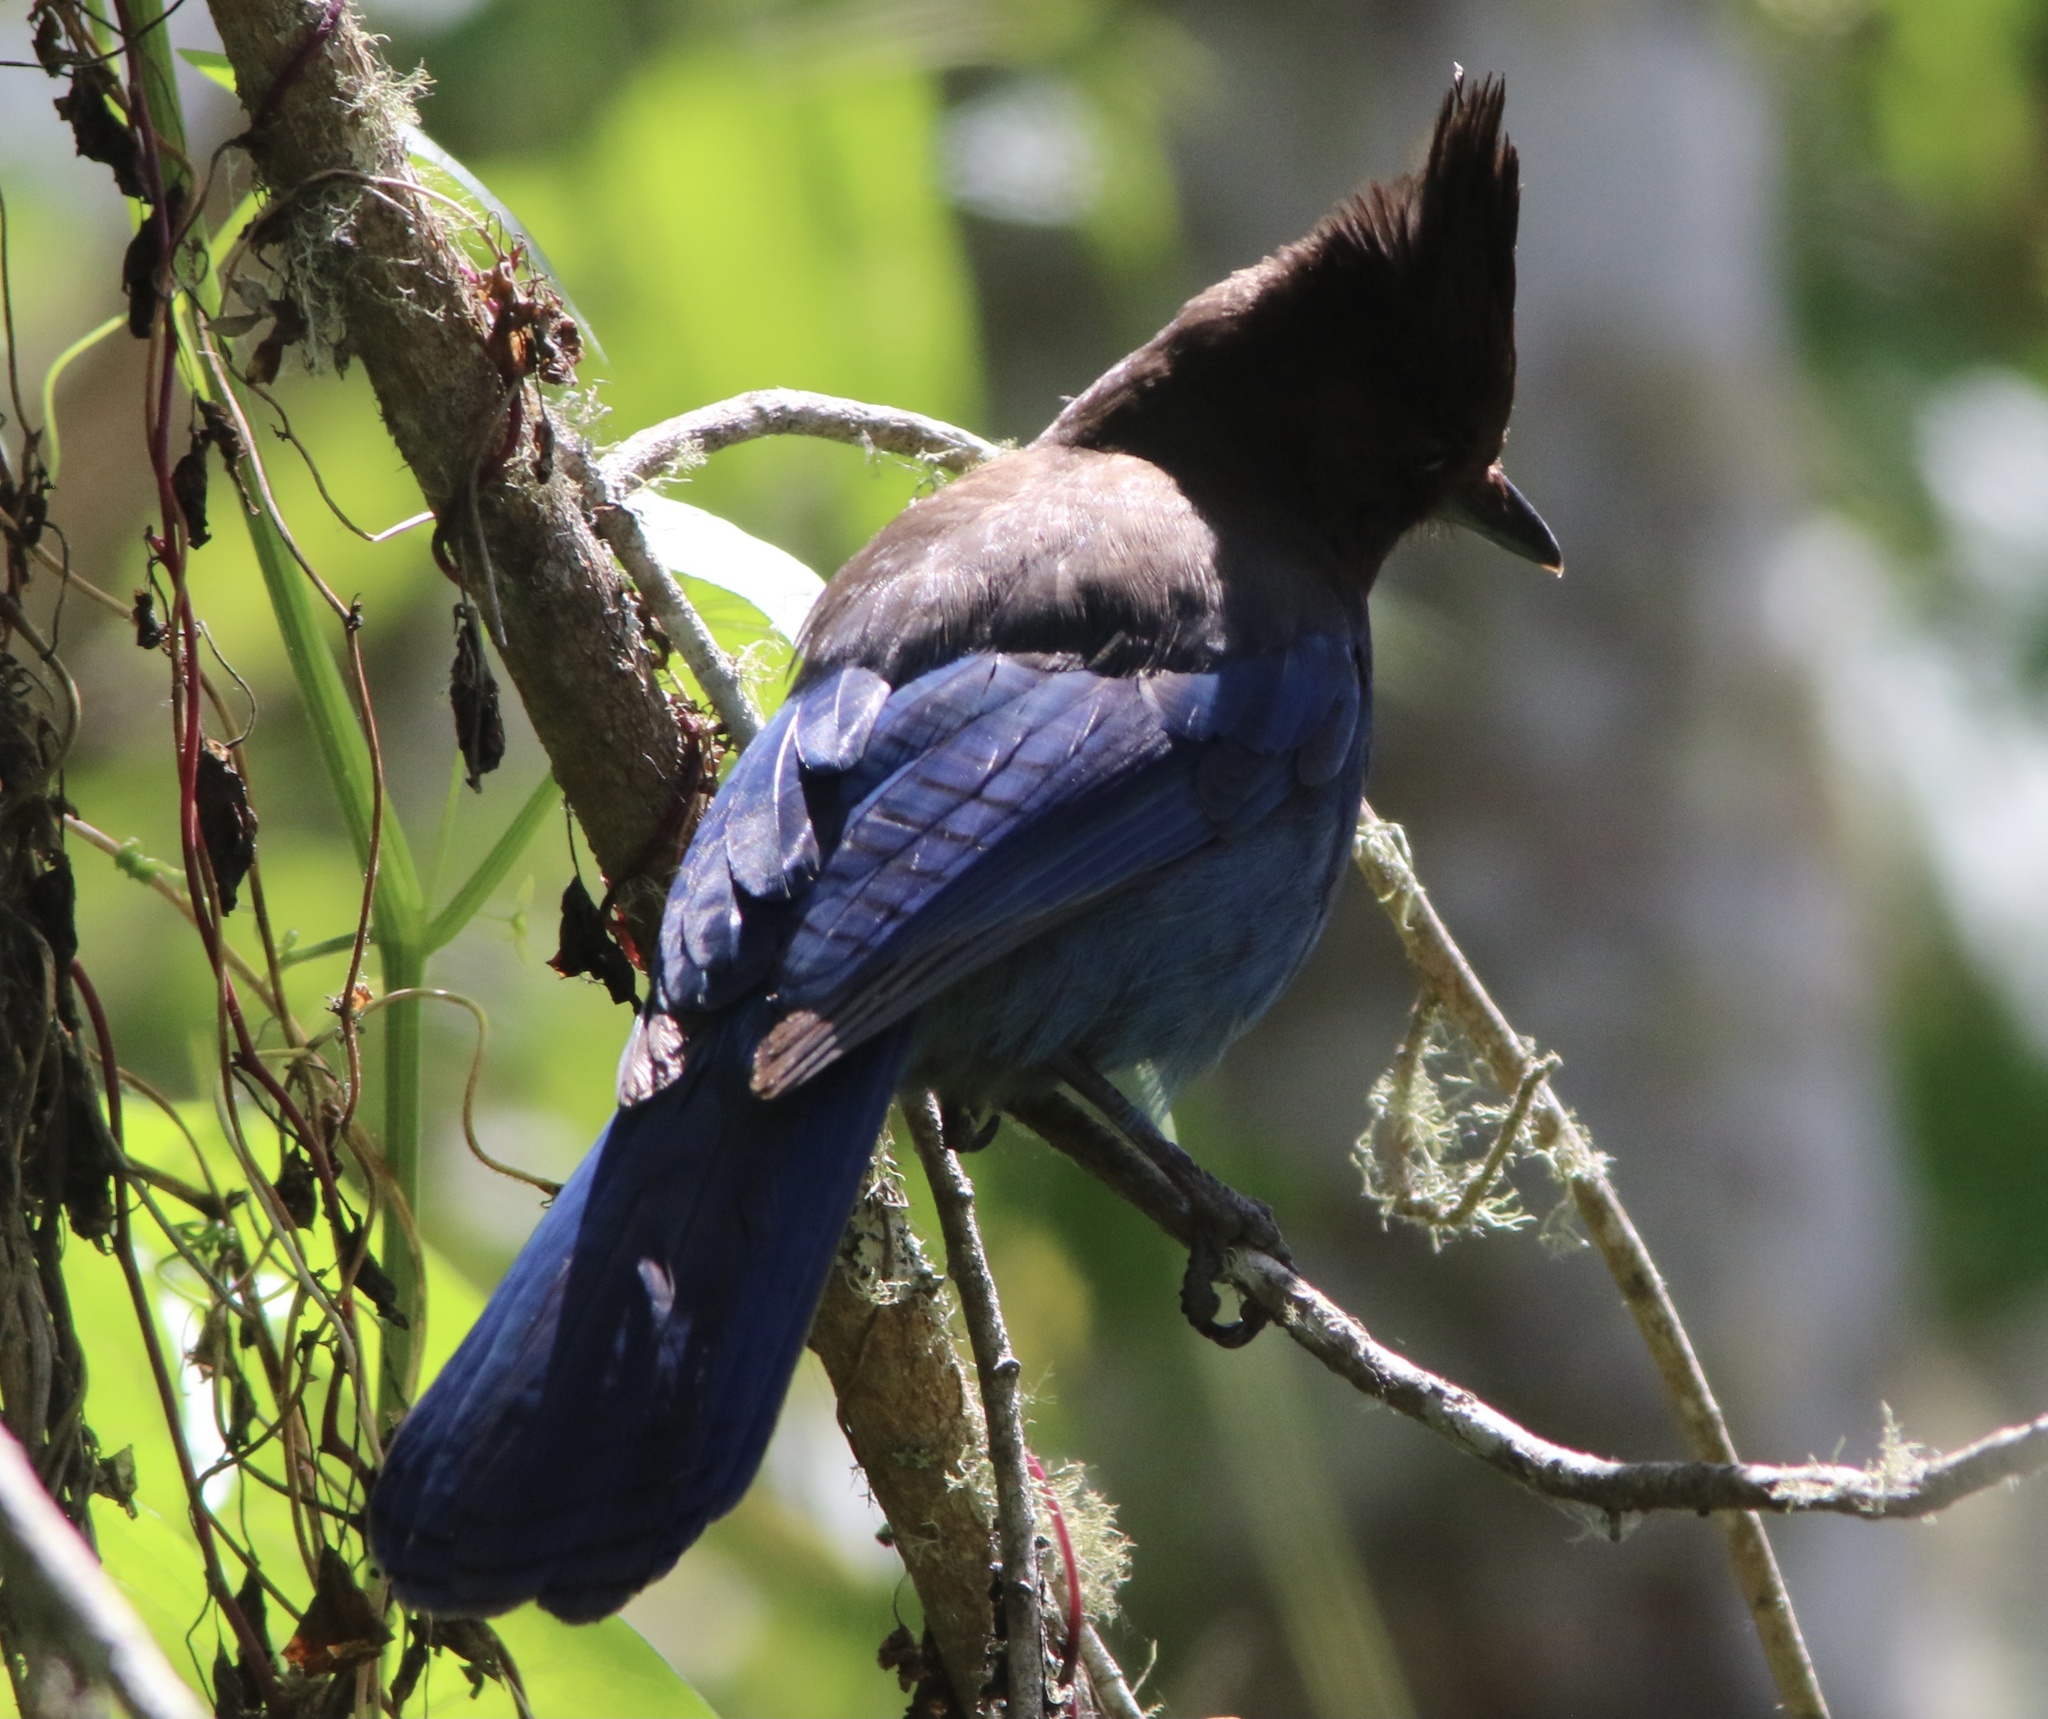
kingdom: Animalia
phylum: Chordata
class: Aves
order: Passeriformes
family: Corvidae
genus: Cyanocitta
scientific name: Cyanocitta stelleri
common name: Steller's jay
